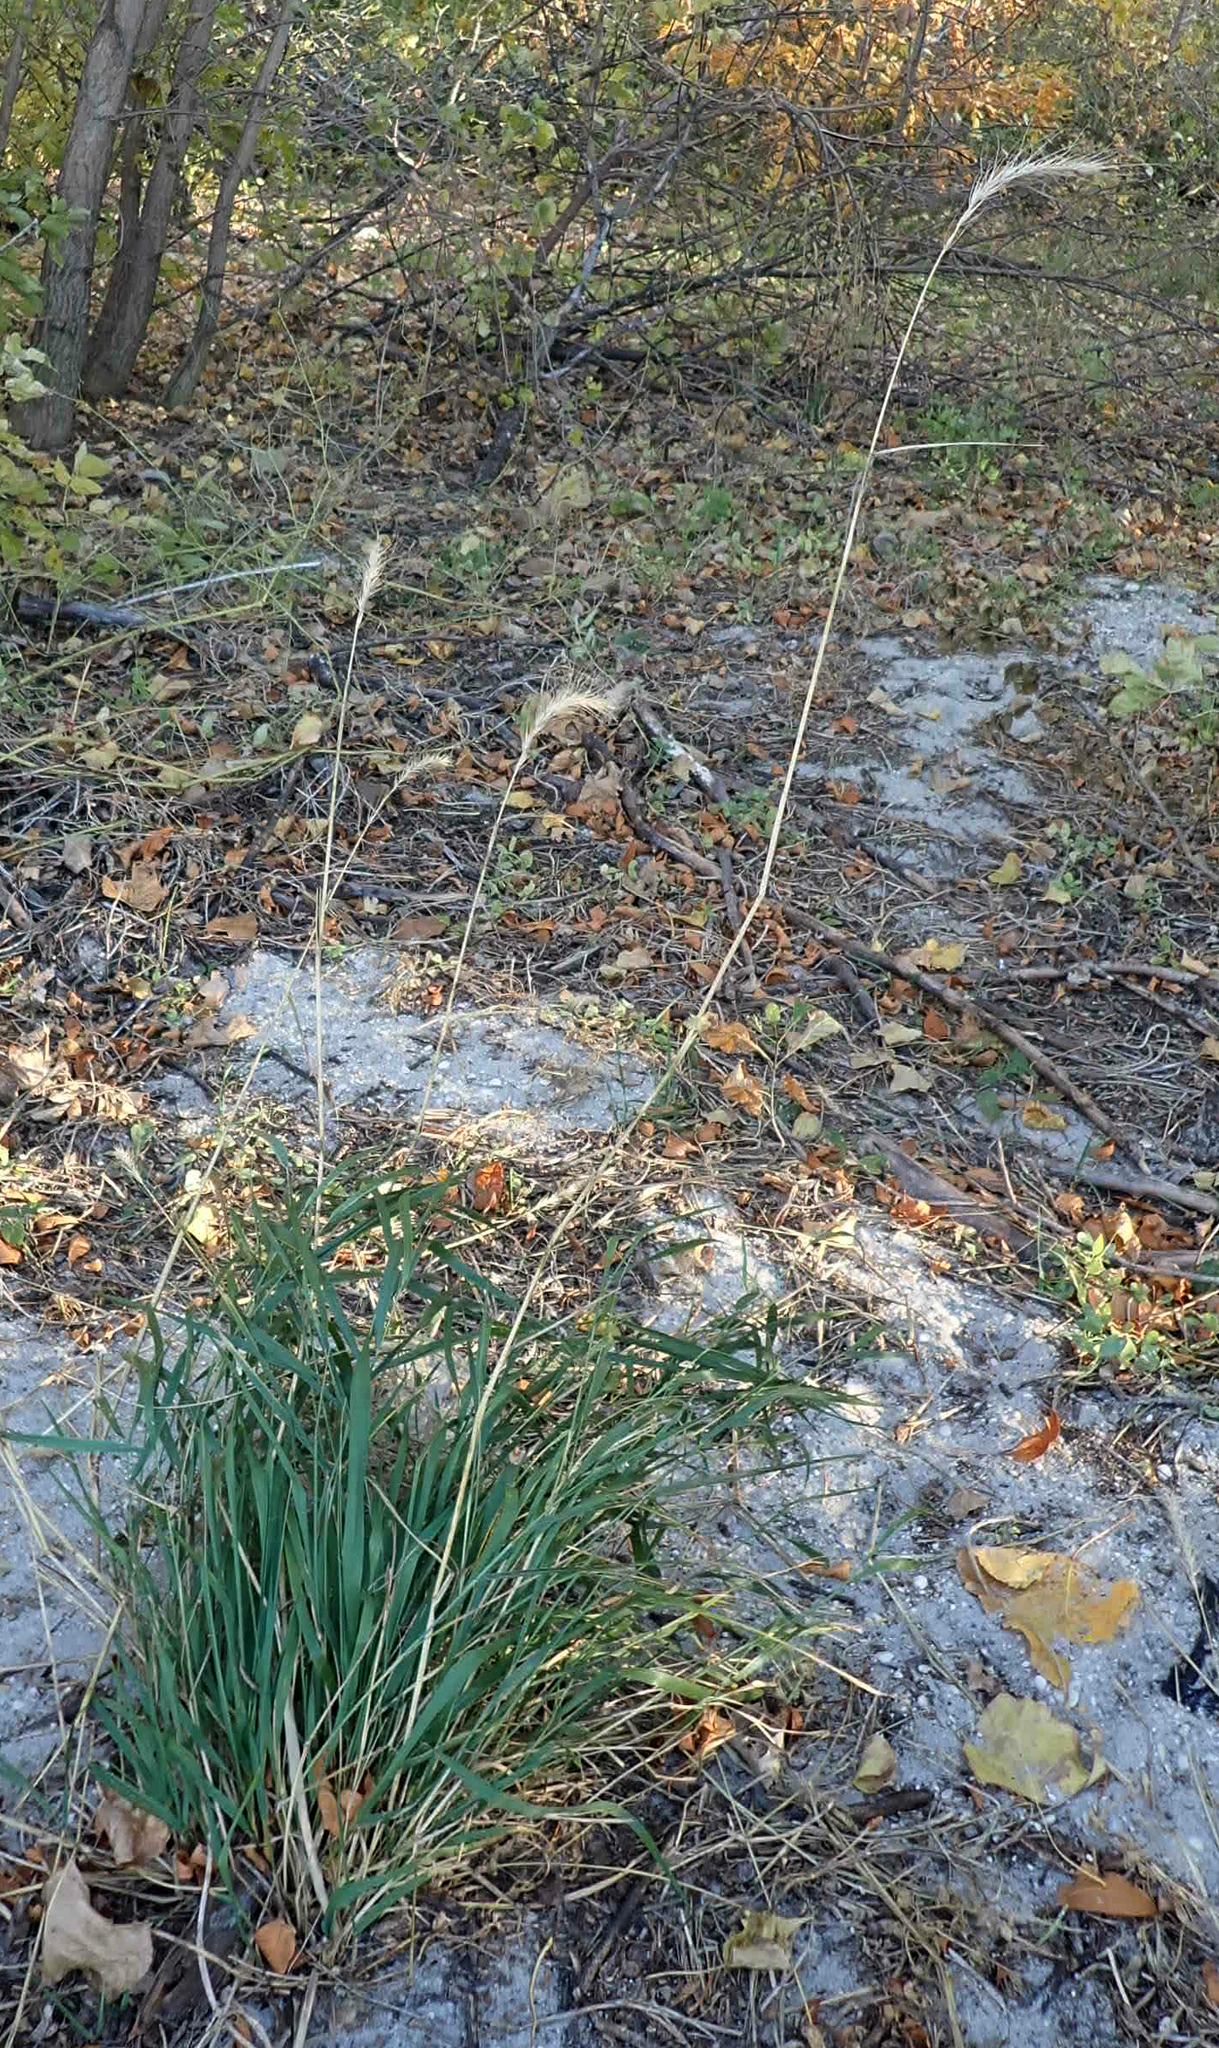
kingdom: Plantae
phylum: Tracheophyta
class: Liliopsida
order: Poales
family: Poaceae
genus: Elymus
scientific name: Elymus canadensis
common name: Canada wild rye
